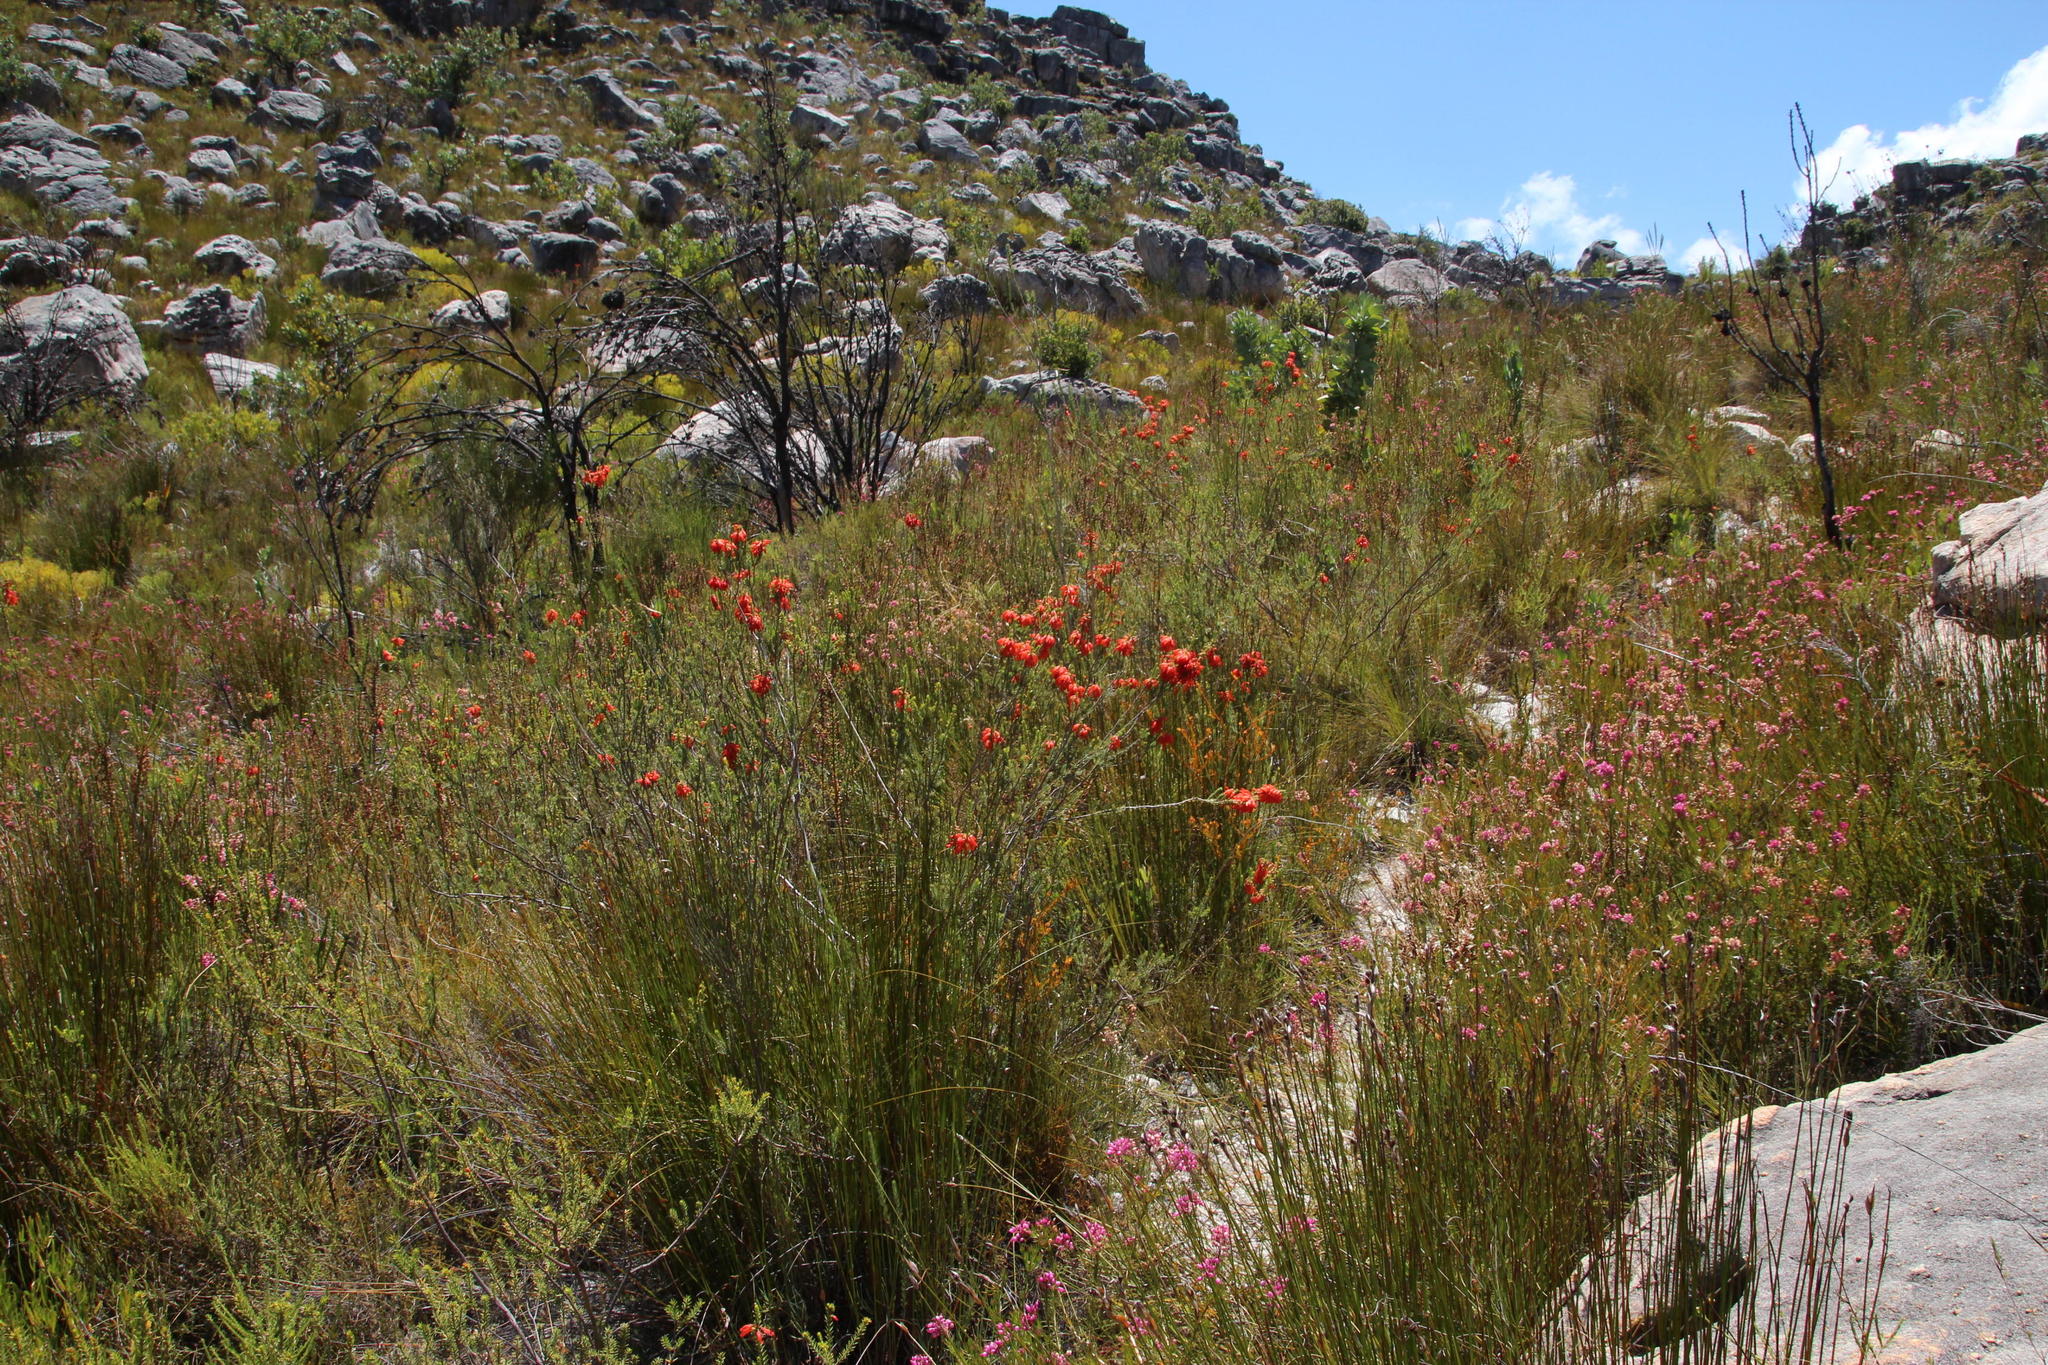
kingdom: Plantae
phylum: Tracheophyta
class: Magnoliopsida
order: Ericales
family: Ericaceae
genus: Erica
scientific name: Erica mammosa
